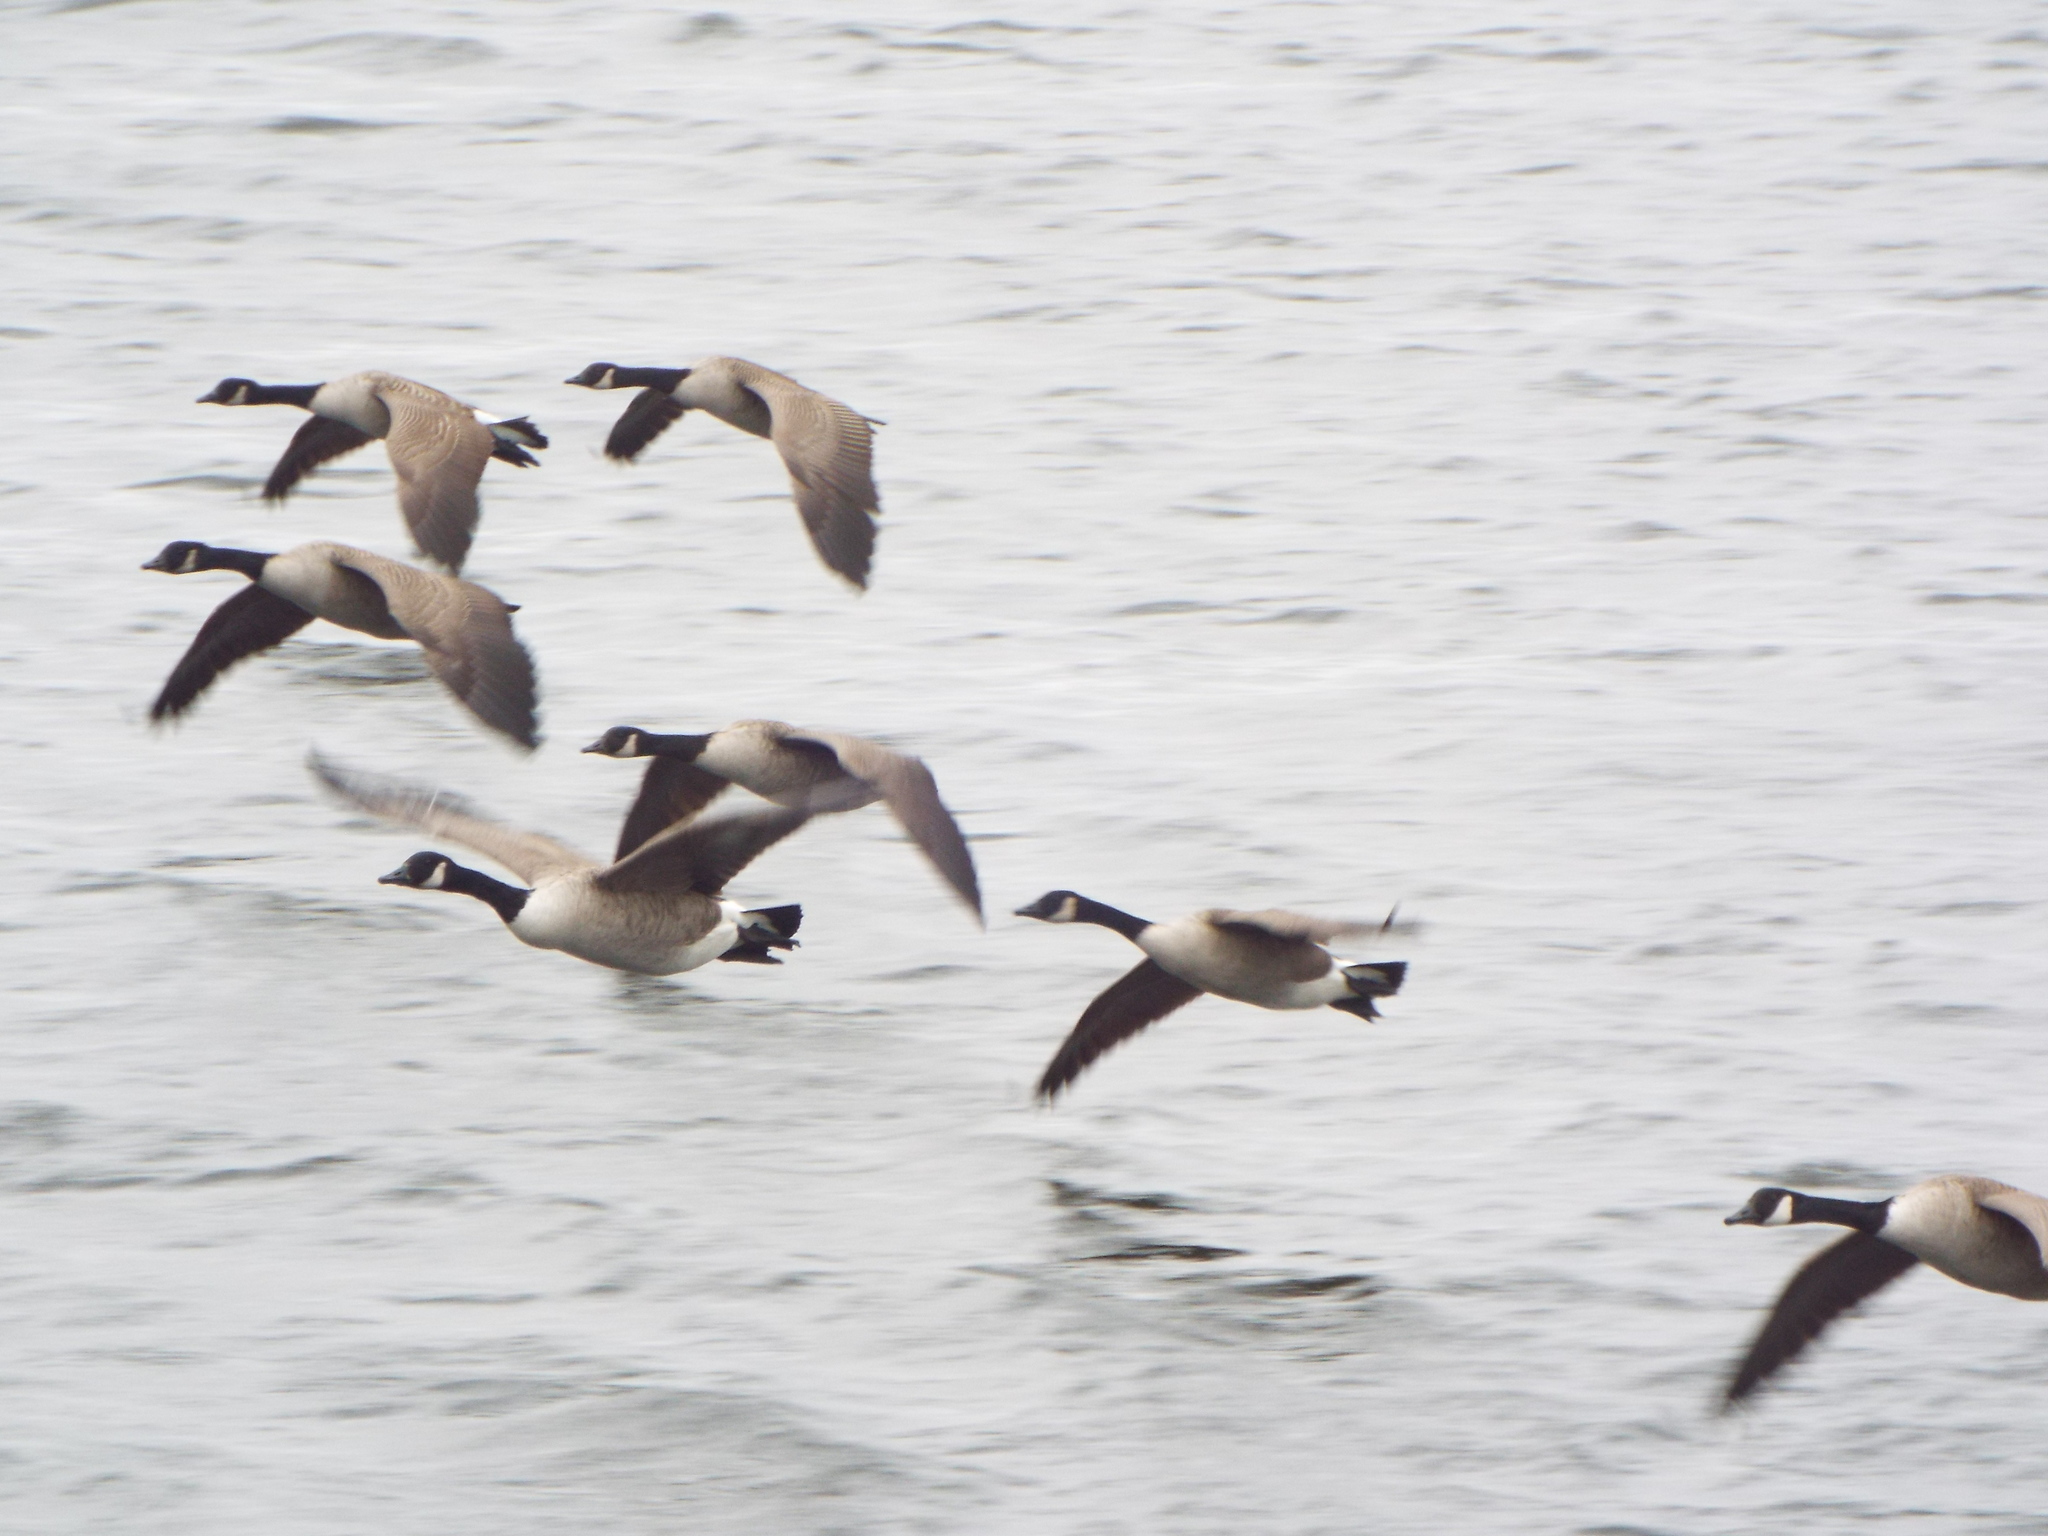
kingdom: Animalia
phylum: Chordata
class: Aves
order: Anseriformes
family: Anatidae
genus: Branta
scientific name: Branta canadensis
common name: Canada goose
